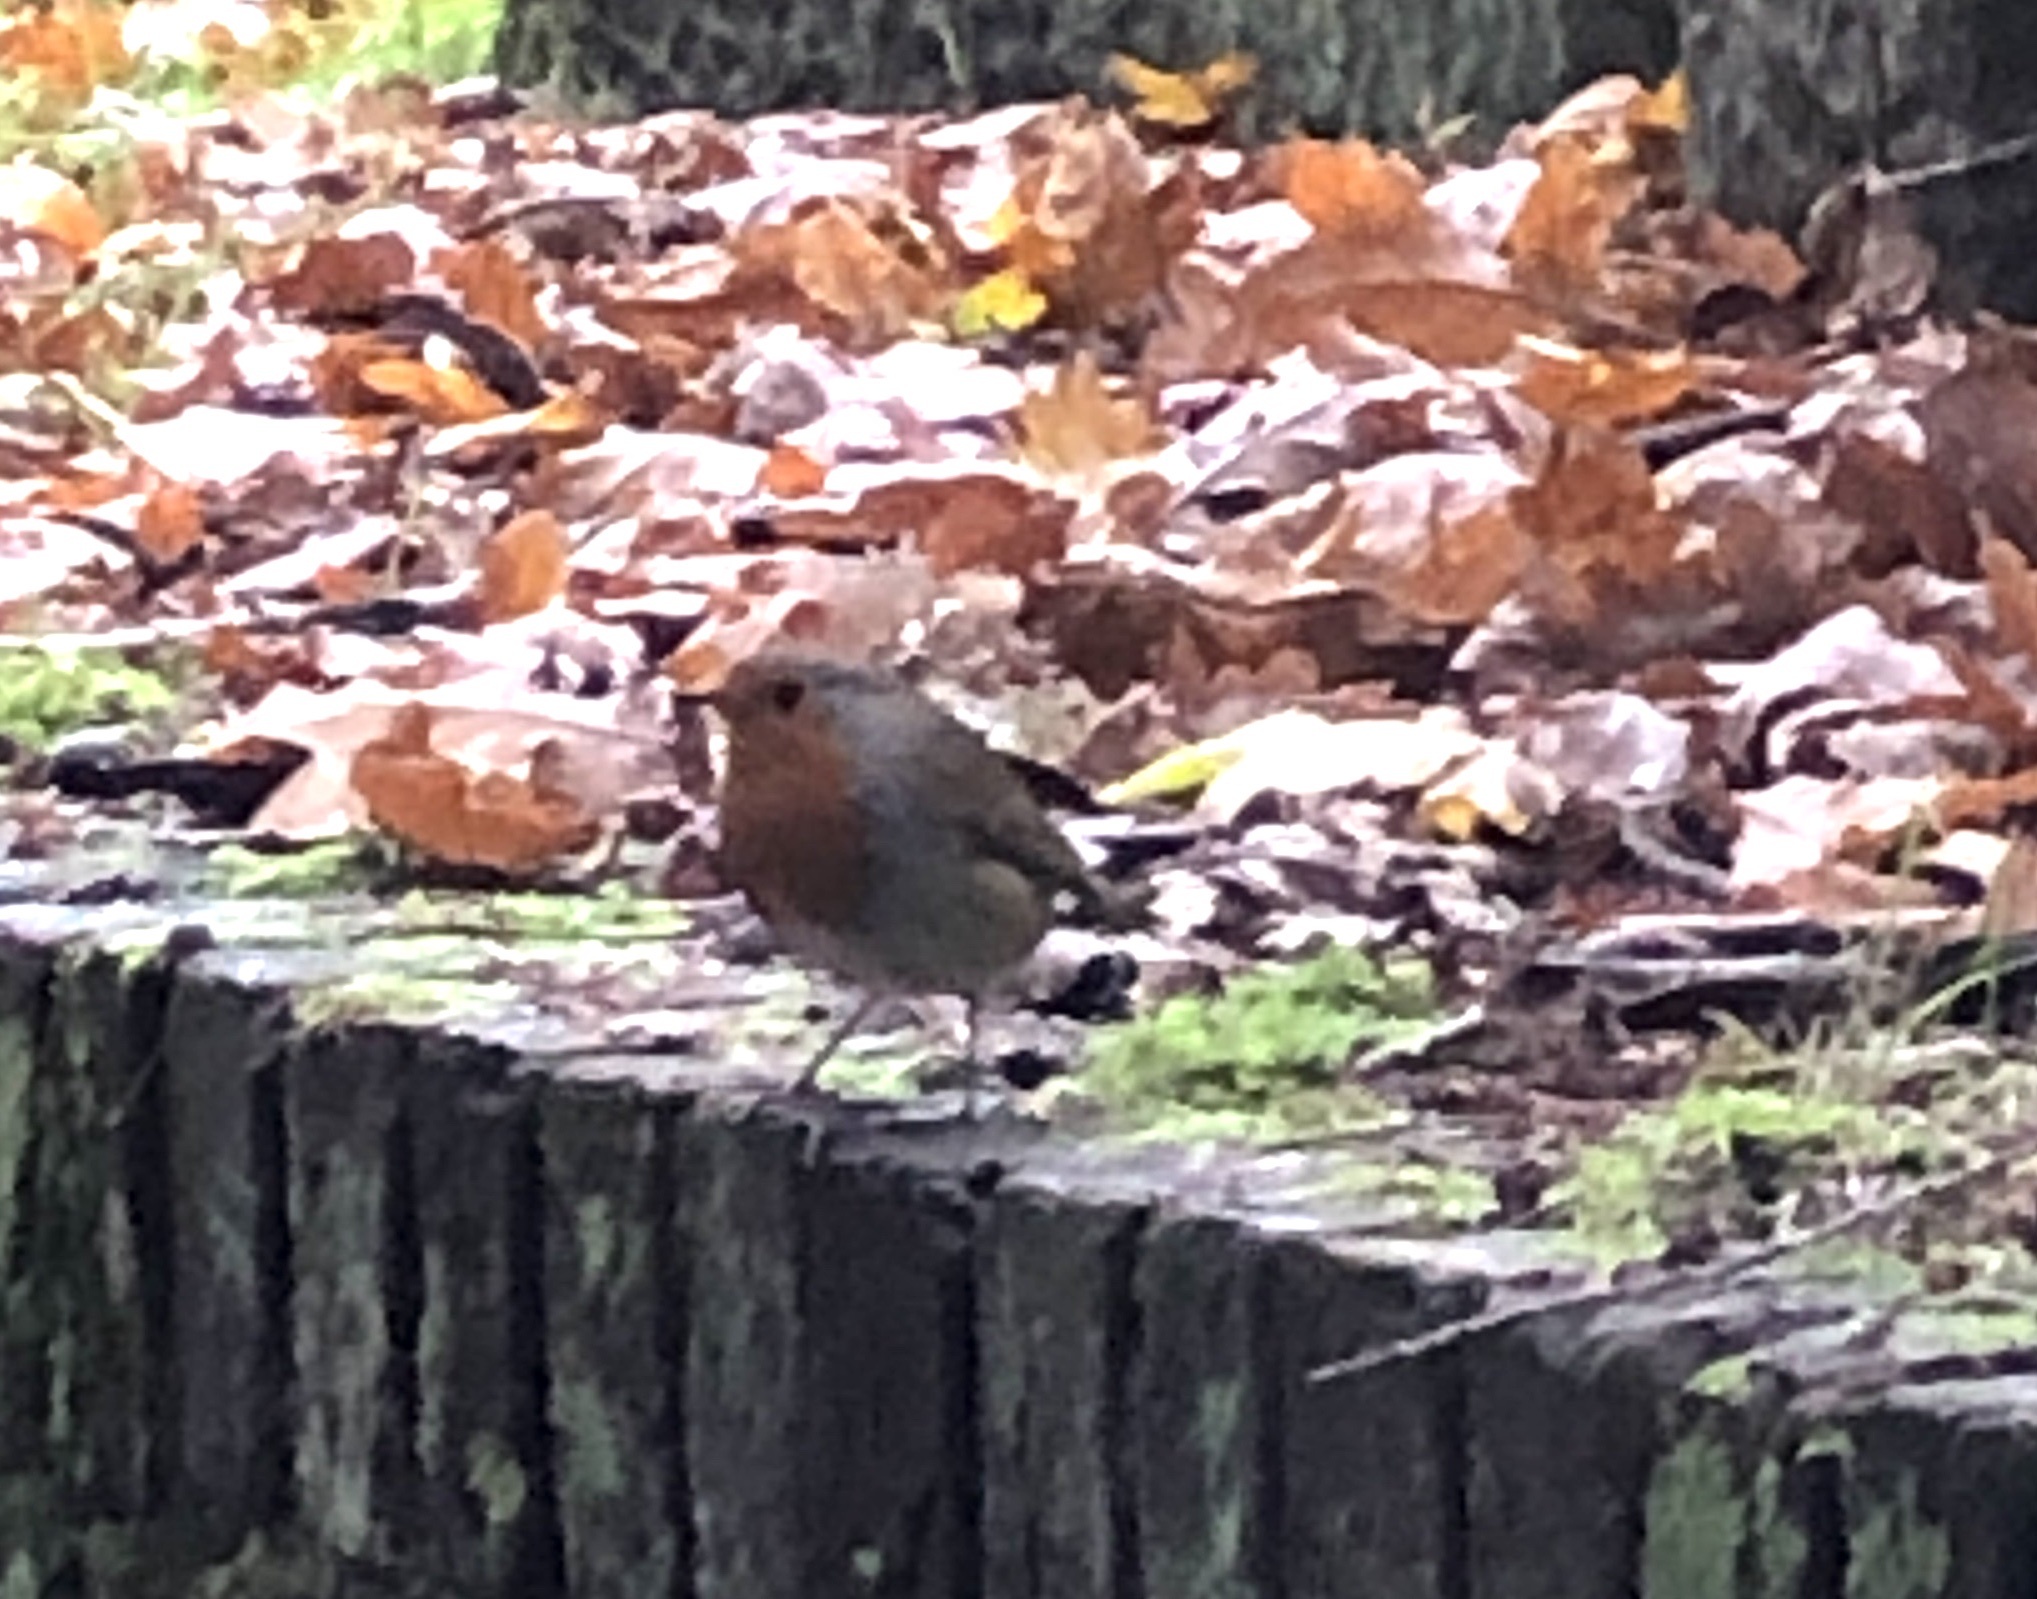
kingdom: Animalia
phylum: Chordata
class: Aves
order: Passeriformes
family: Muscicapidae
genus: Erithacus
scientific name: Erithacus rubecula
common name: European robin
